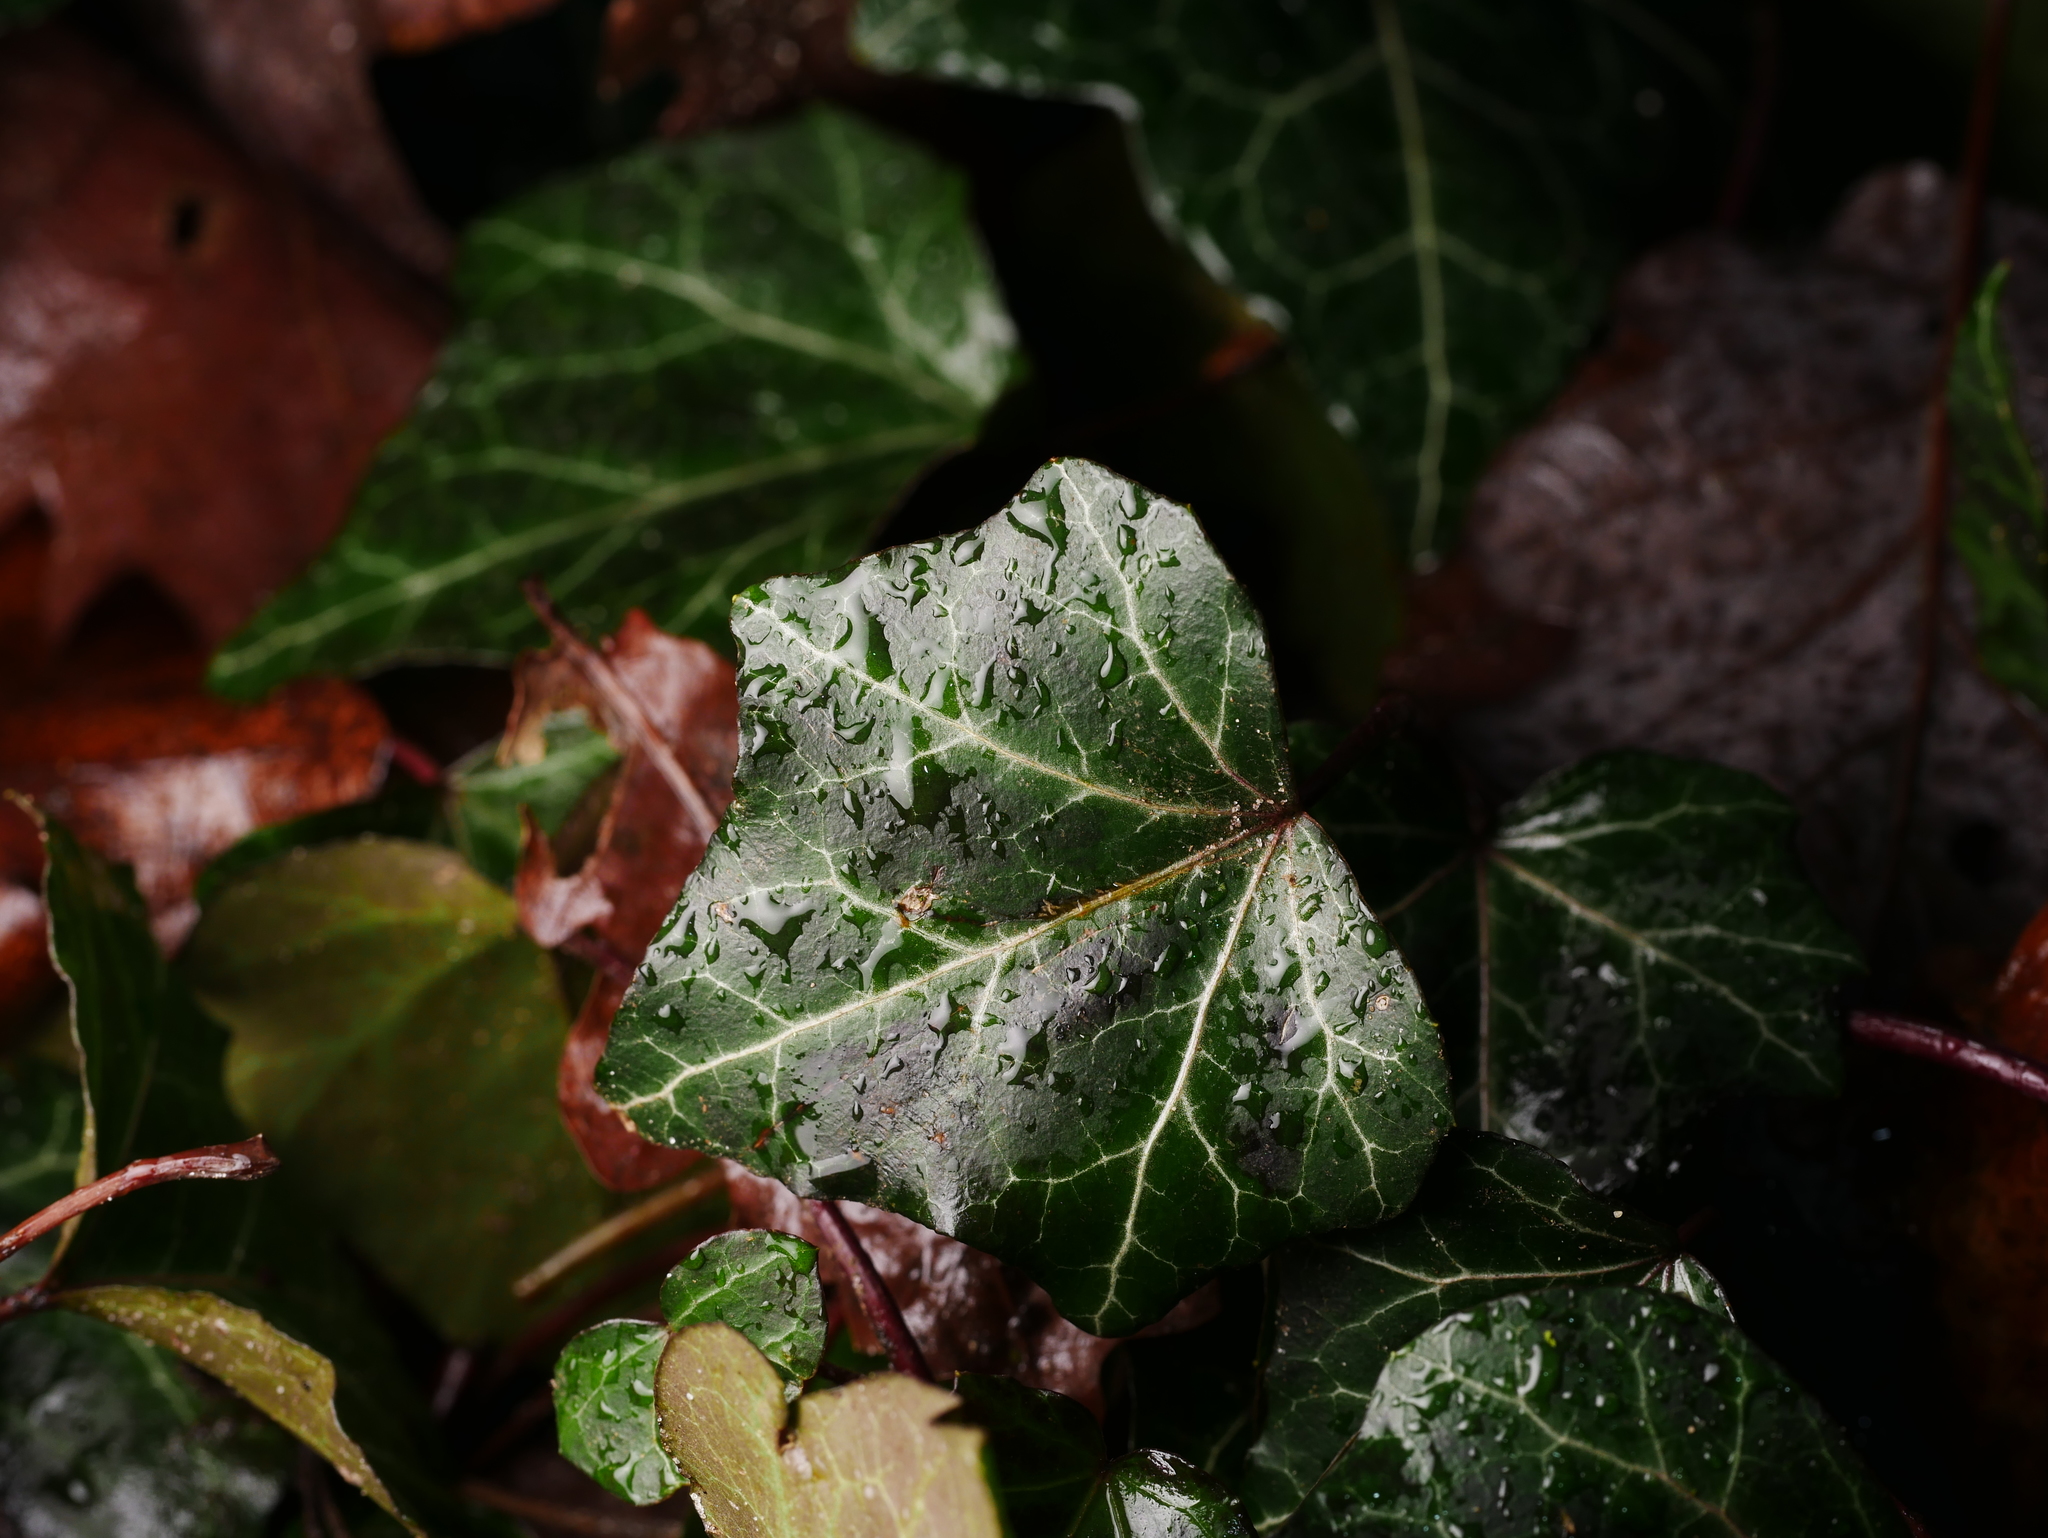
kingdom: Plantae
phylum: Tracheophyta
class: Magnoliopsida
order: Apiales
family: Araliaceae
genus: Hedera
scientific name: Hedera helix
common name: Ivy
